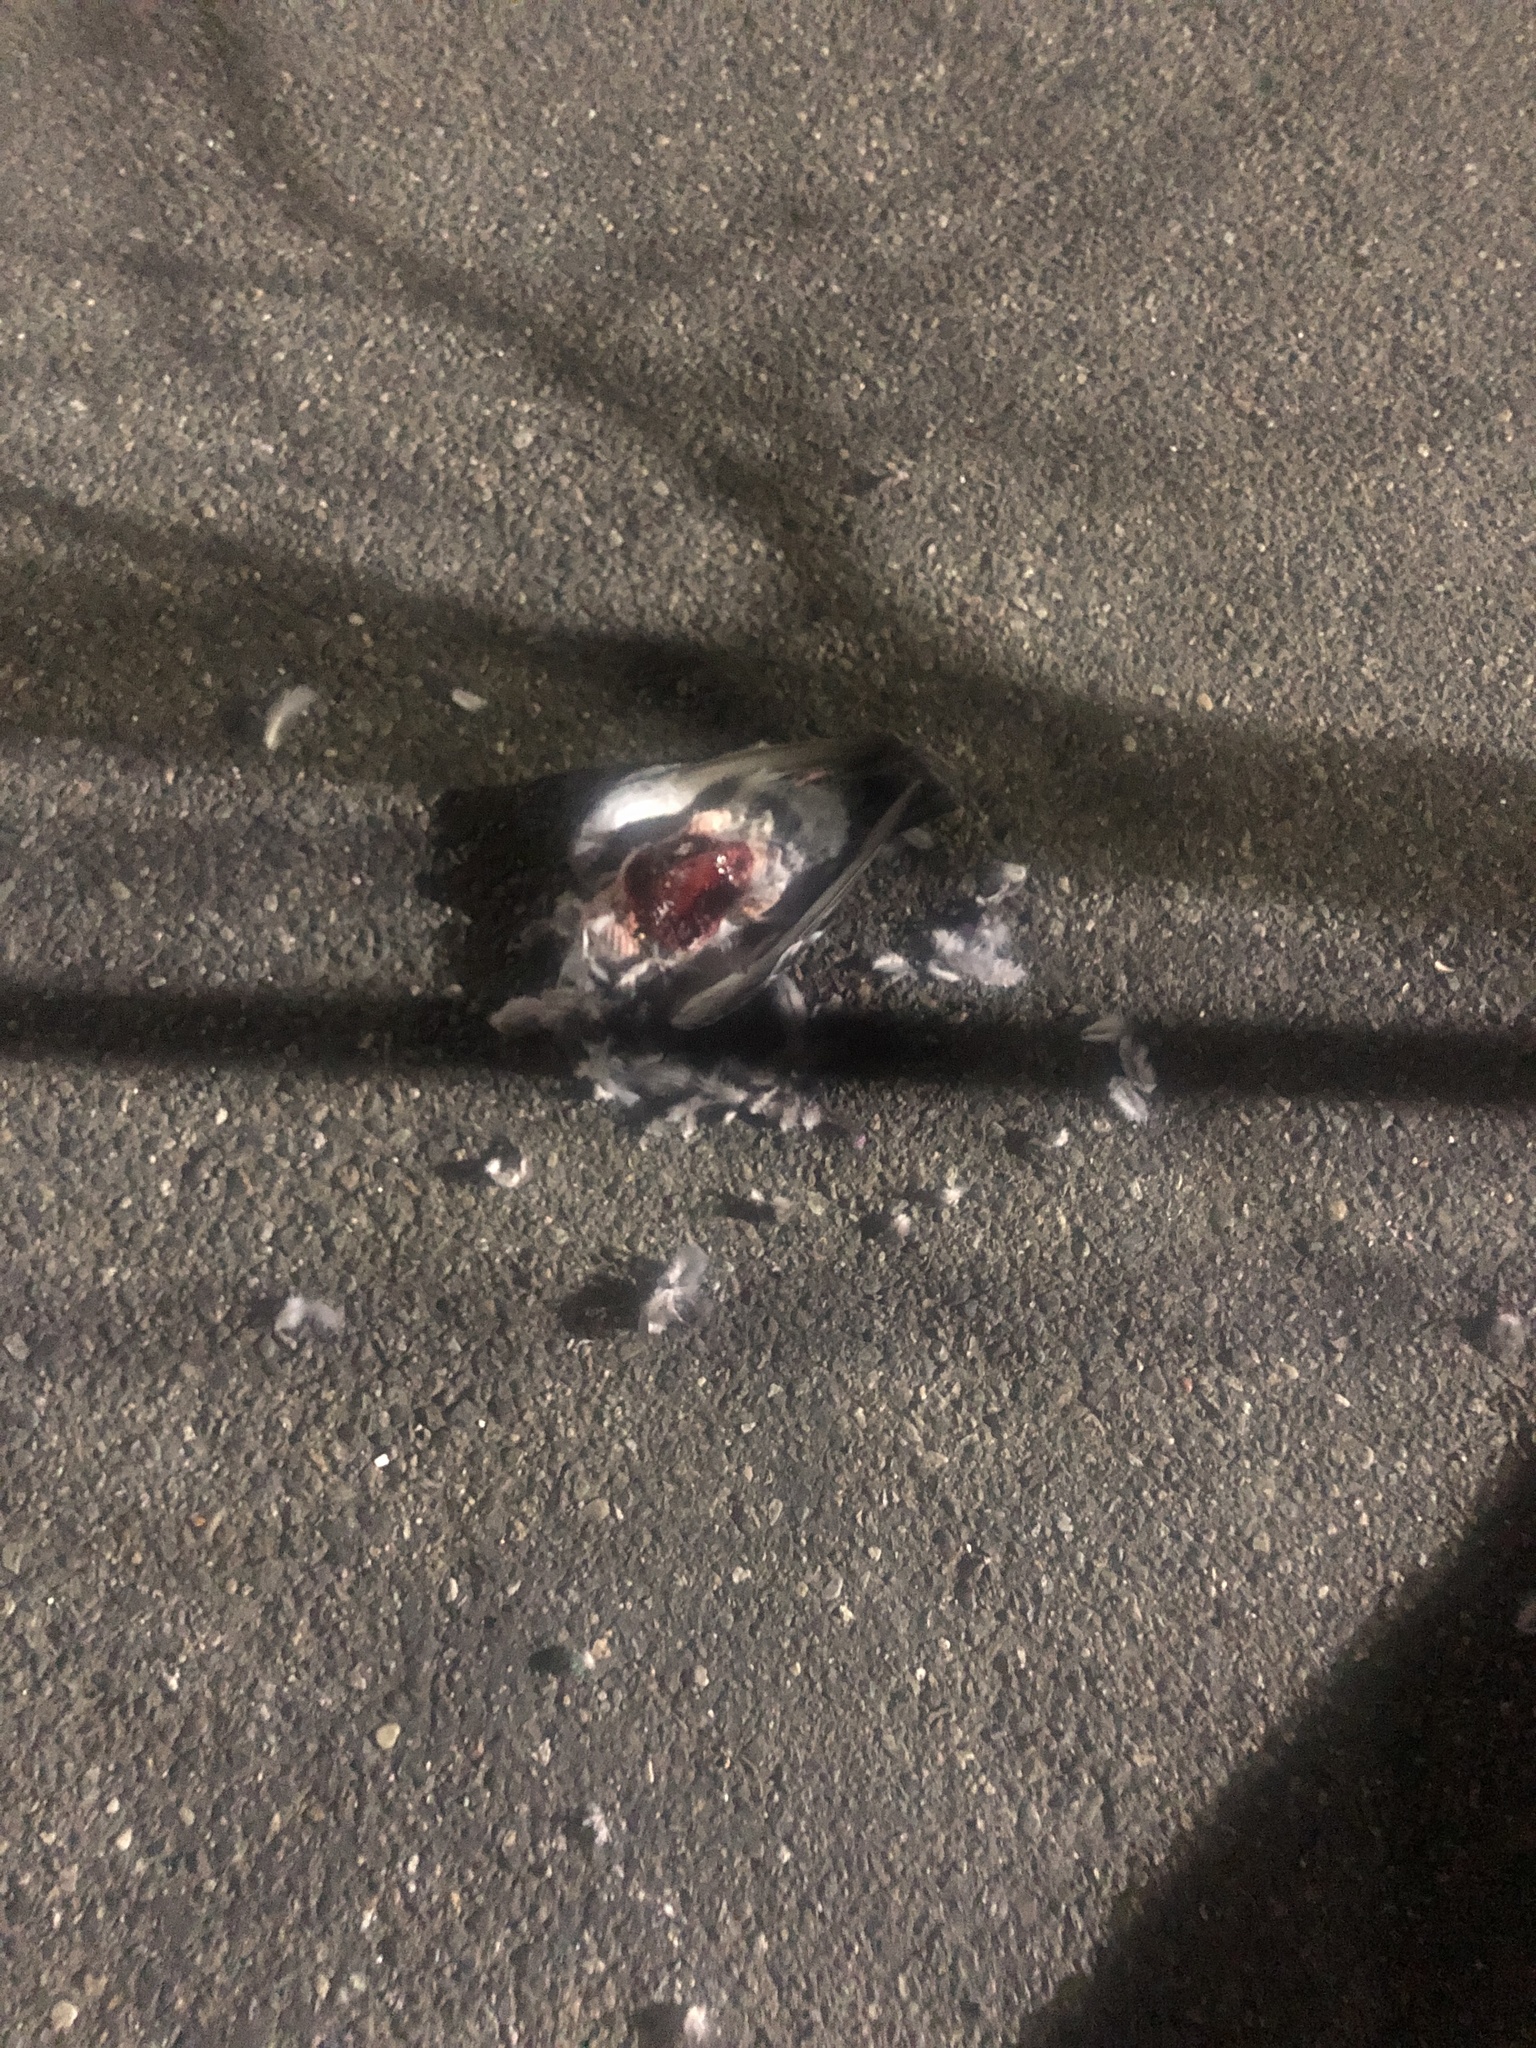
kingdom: Animalia
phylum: Chordata
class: Aves
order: Columbiformes
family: Columbidae
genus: Columba
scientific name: Columba livia
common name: Rock pigeon
